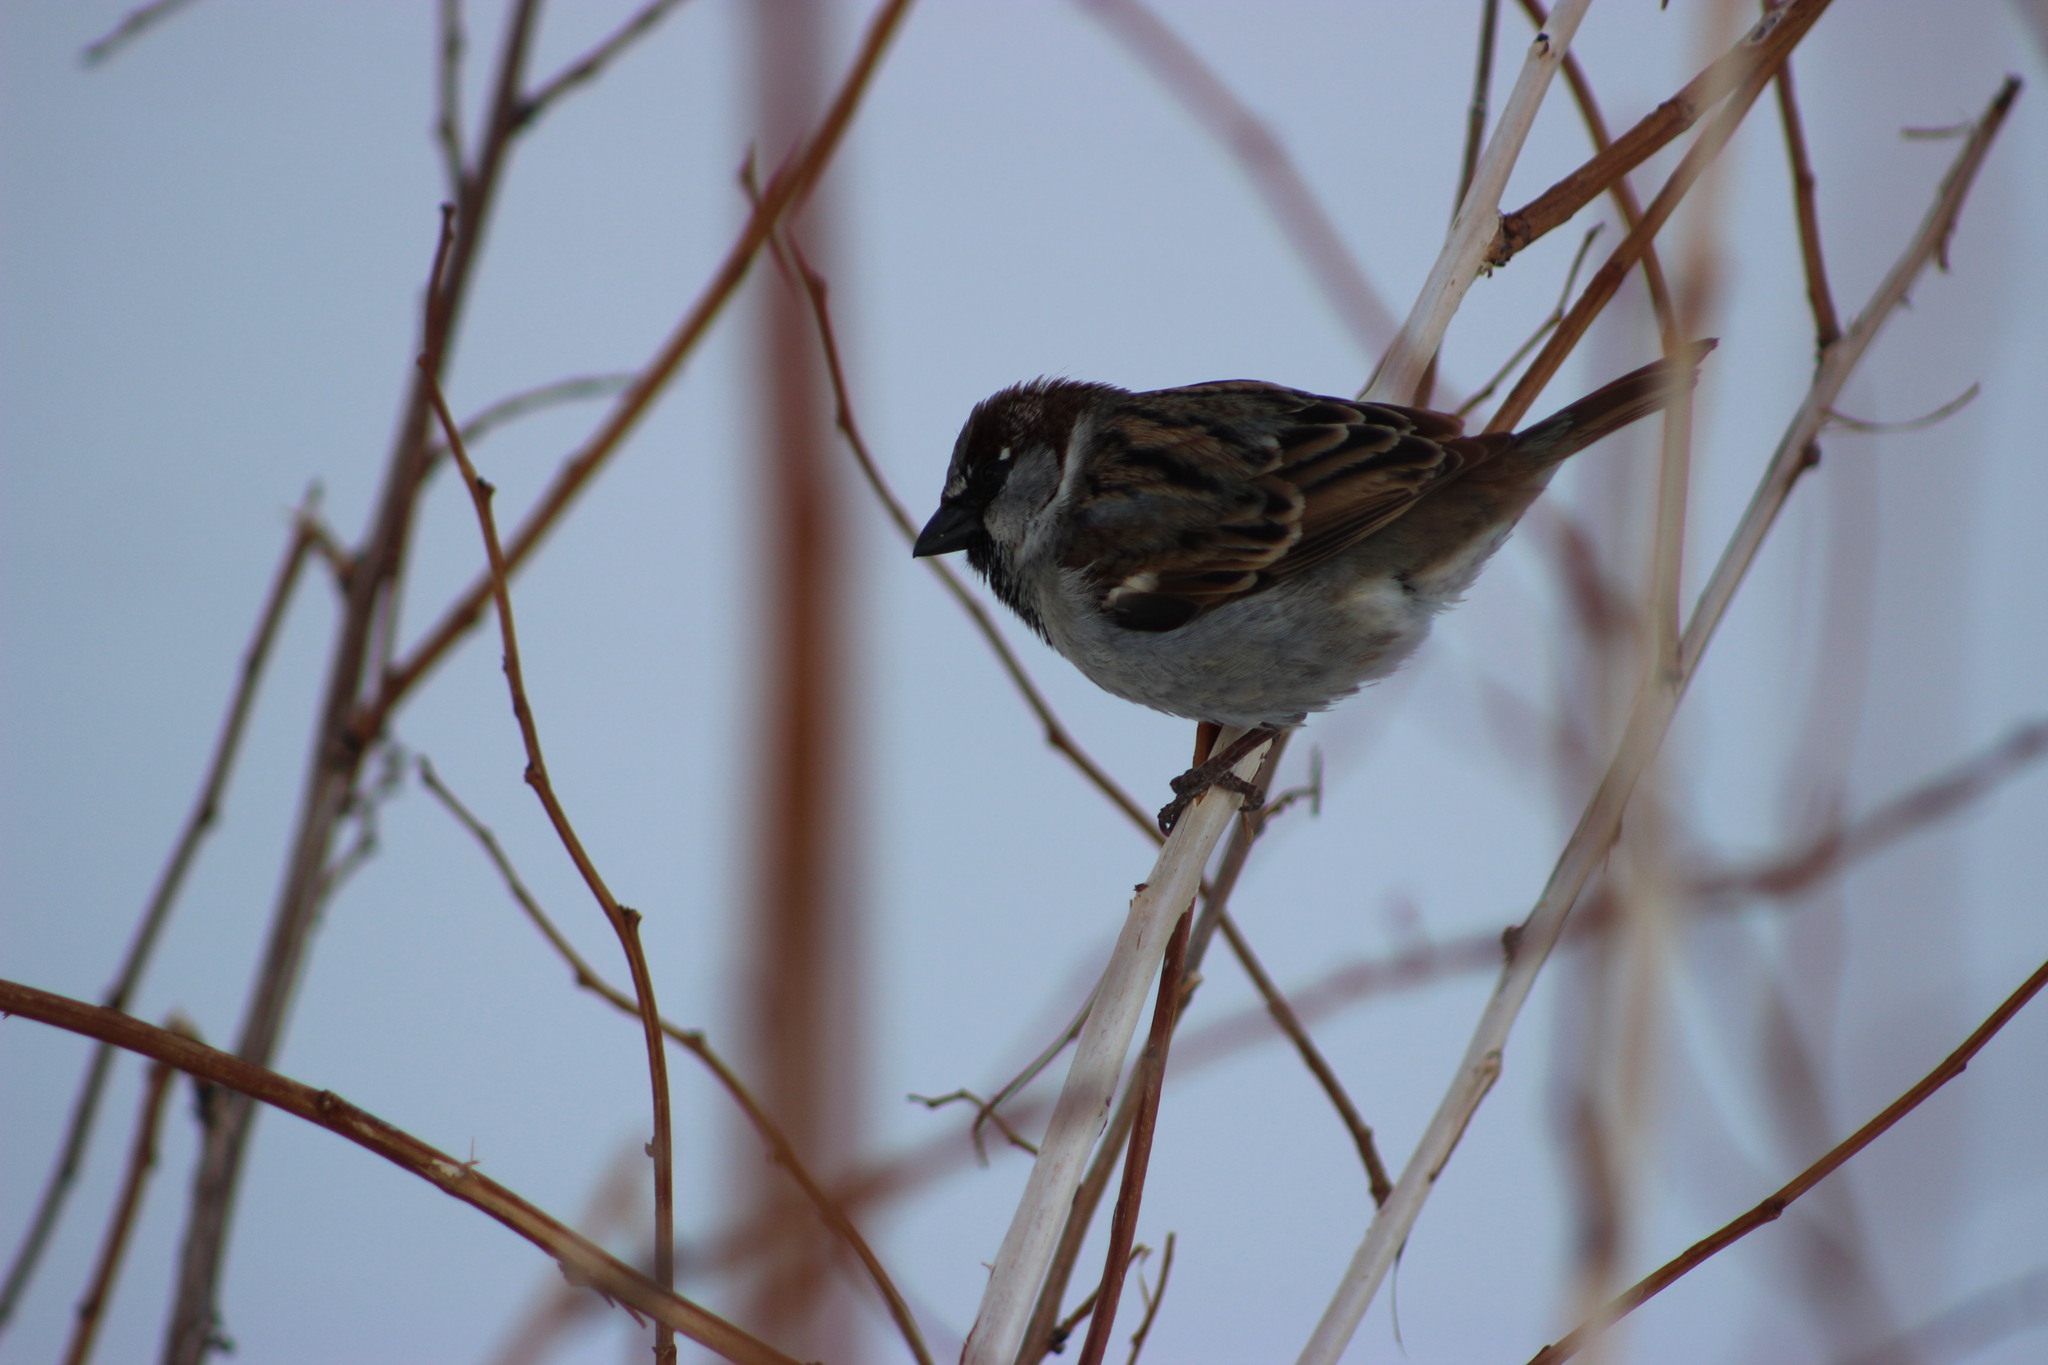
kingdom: Animalia
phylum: Chordata
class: Aves
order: Passeriformes
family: Passeridae
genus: Passer
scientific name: Passer domesticus
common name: House sparrow
